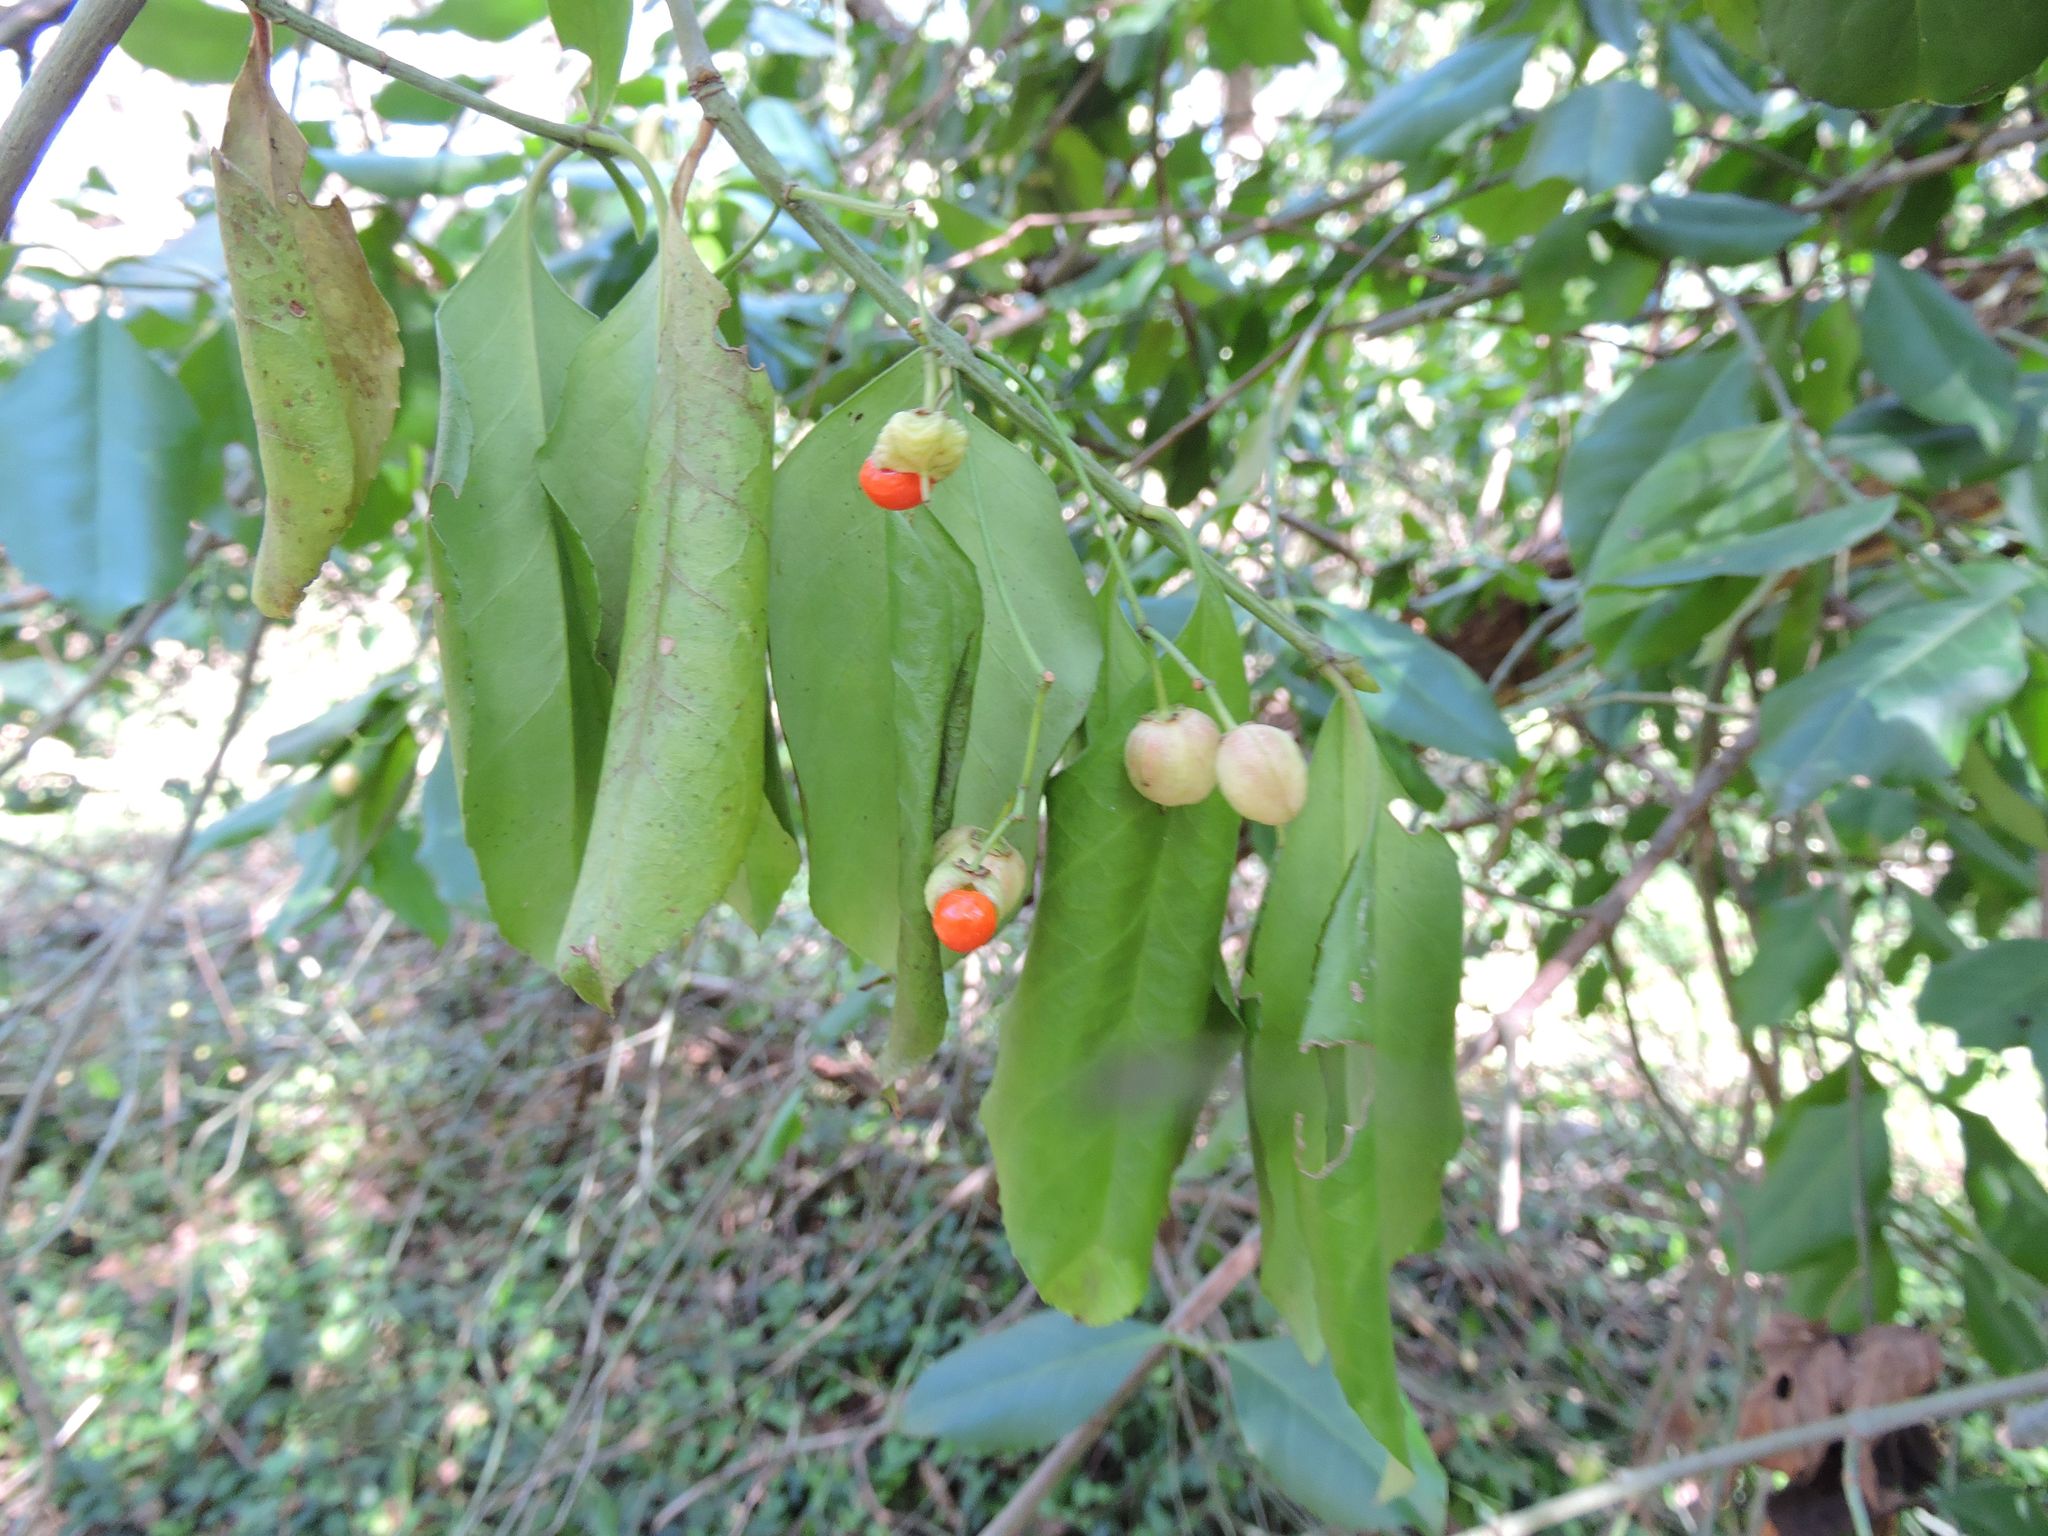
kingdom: Plantae
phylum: Tracheophyta
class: Magnoliopsida
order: Celastrales
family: Celastraceae
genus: Euonymus
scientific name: Euonymus fortunei
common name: Climbing euonymus
